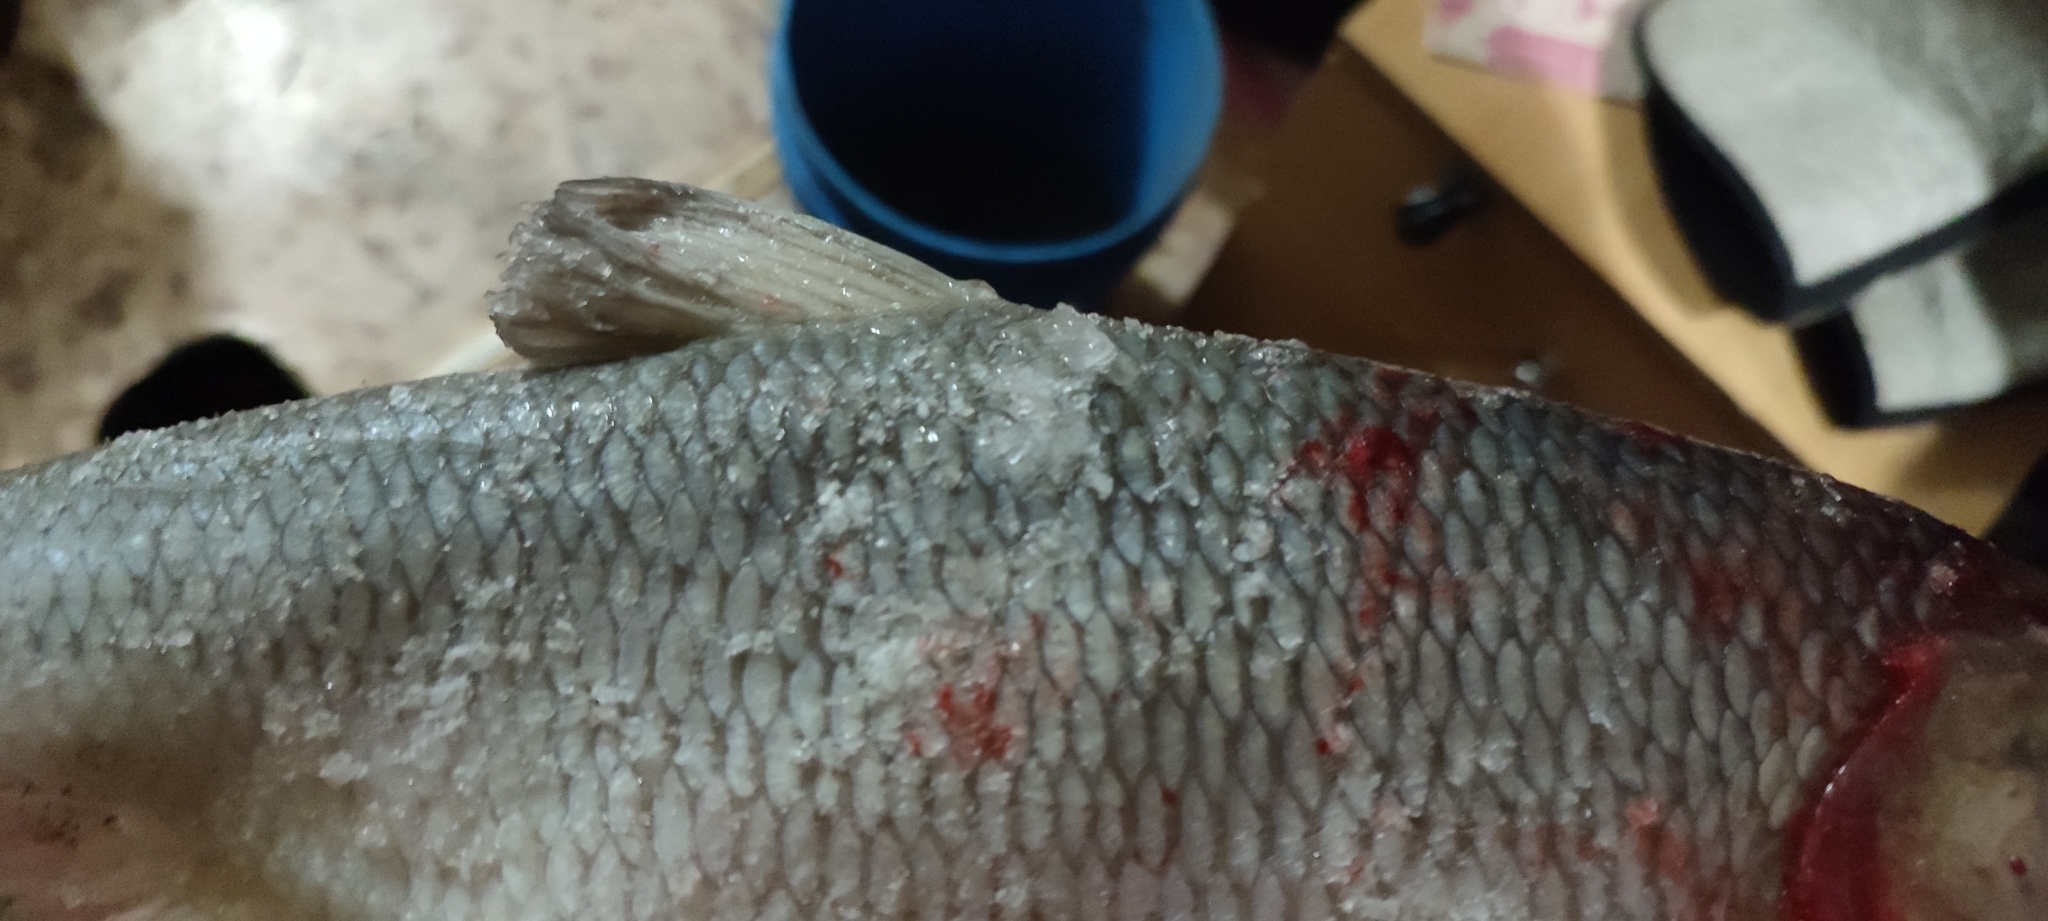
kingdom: Animalia
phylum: Chordata
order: Cypriniformes
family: Cyprinidae
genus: Leuciscus
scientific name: Leuciscus idus
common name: Ide
